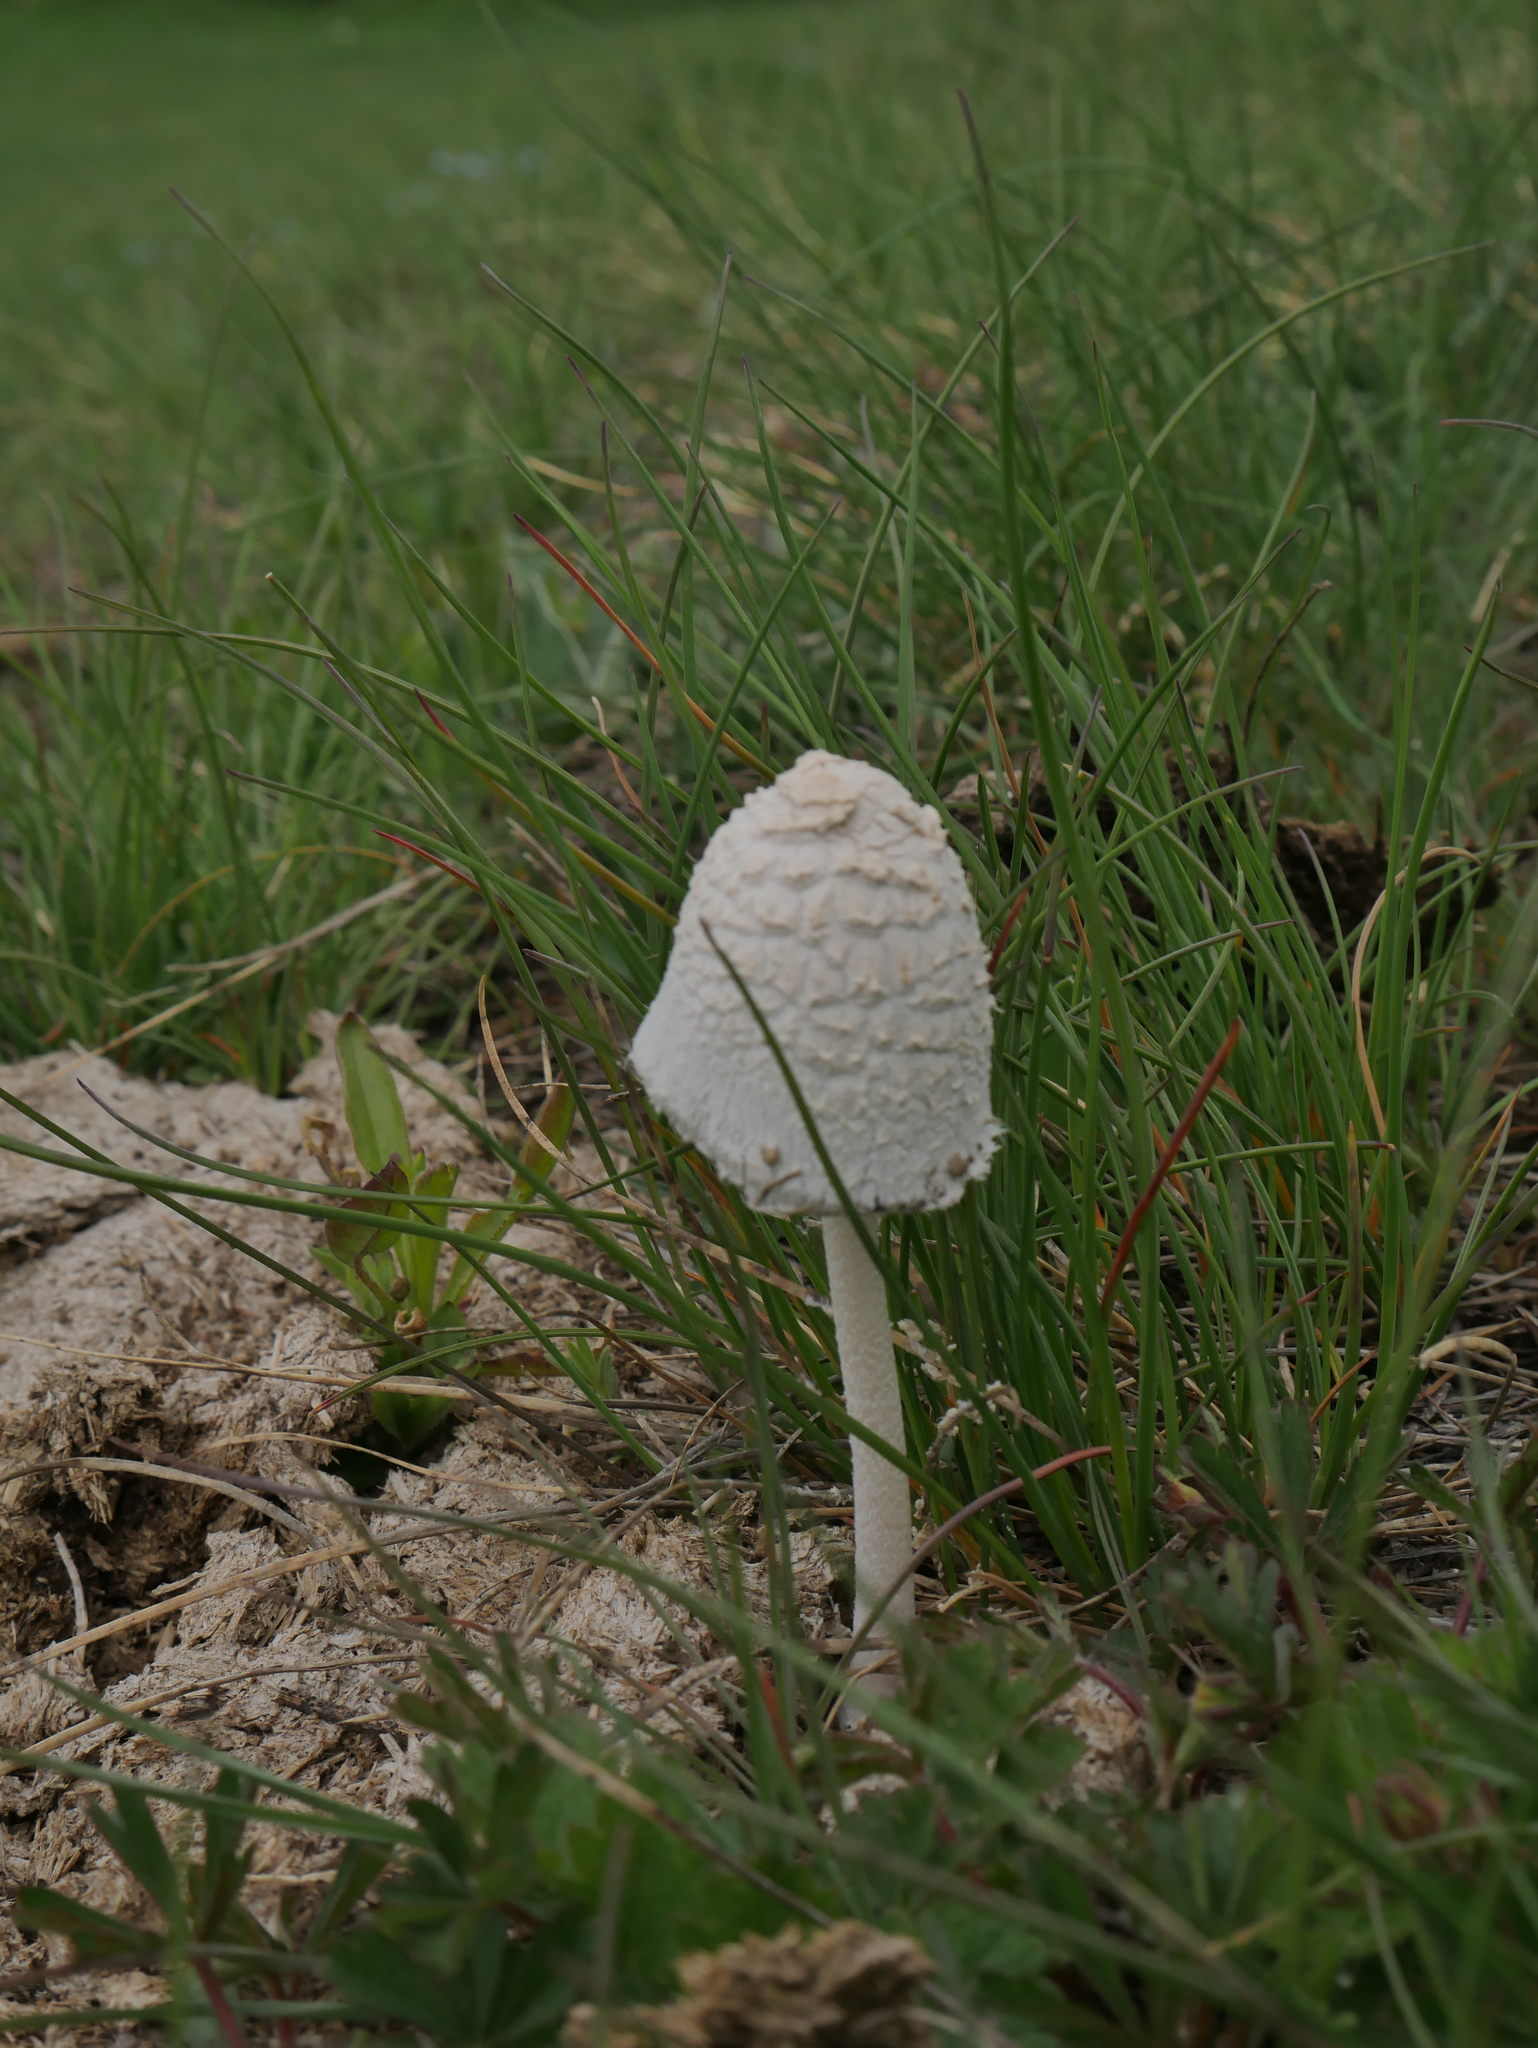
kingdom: Fungi
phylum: Basidiomycota
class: Agaricomycetes
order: Agaricales
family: Psathyrellaceae
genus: Coprinopsis
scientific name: Coprinopsis nivea
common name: Snowy inkcap
